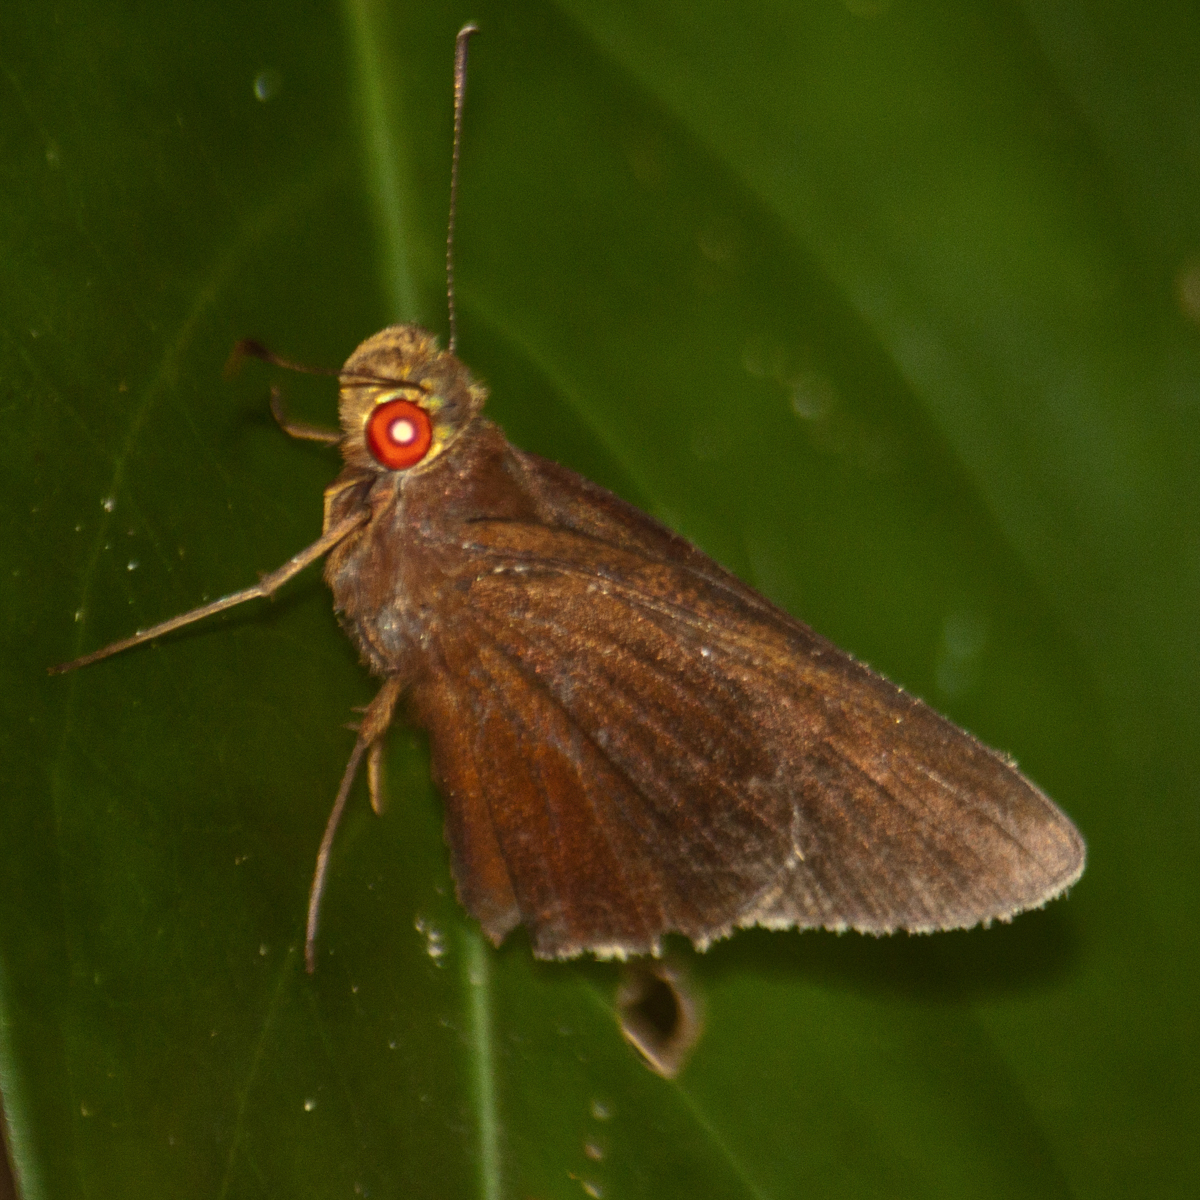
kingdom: Animalia
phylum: Arthropoda
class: Insecta
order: Lepidoptera
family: Hesperiidae
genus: Matapa
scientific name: Matapa aria
